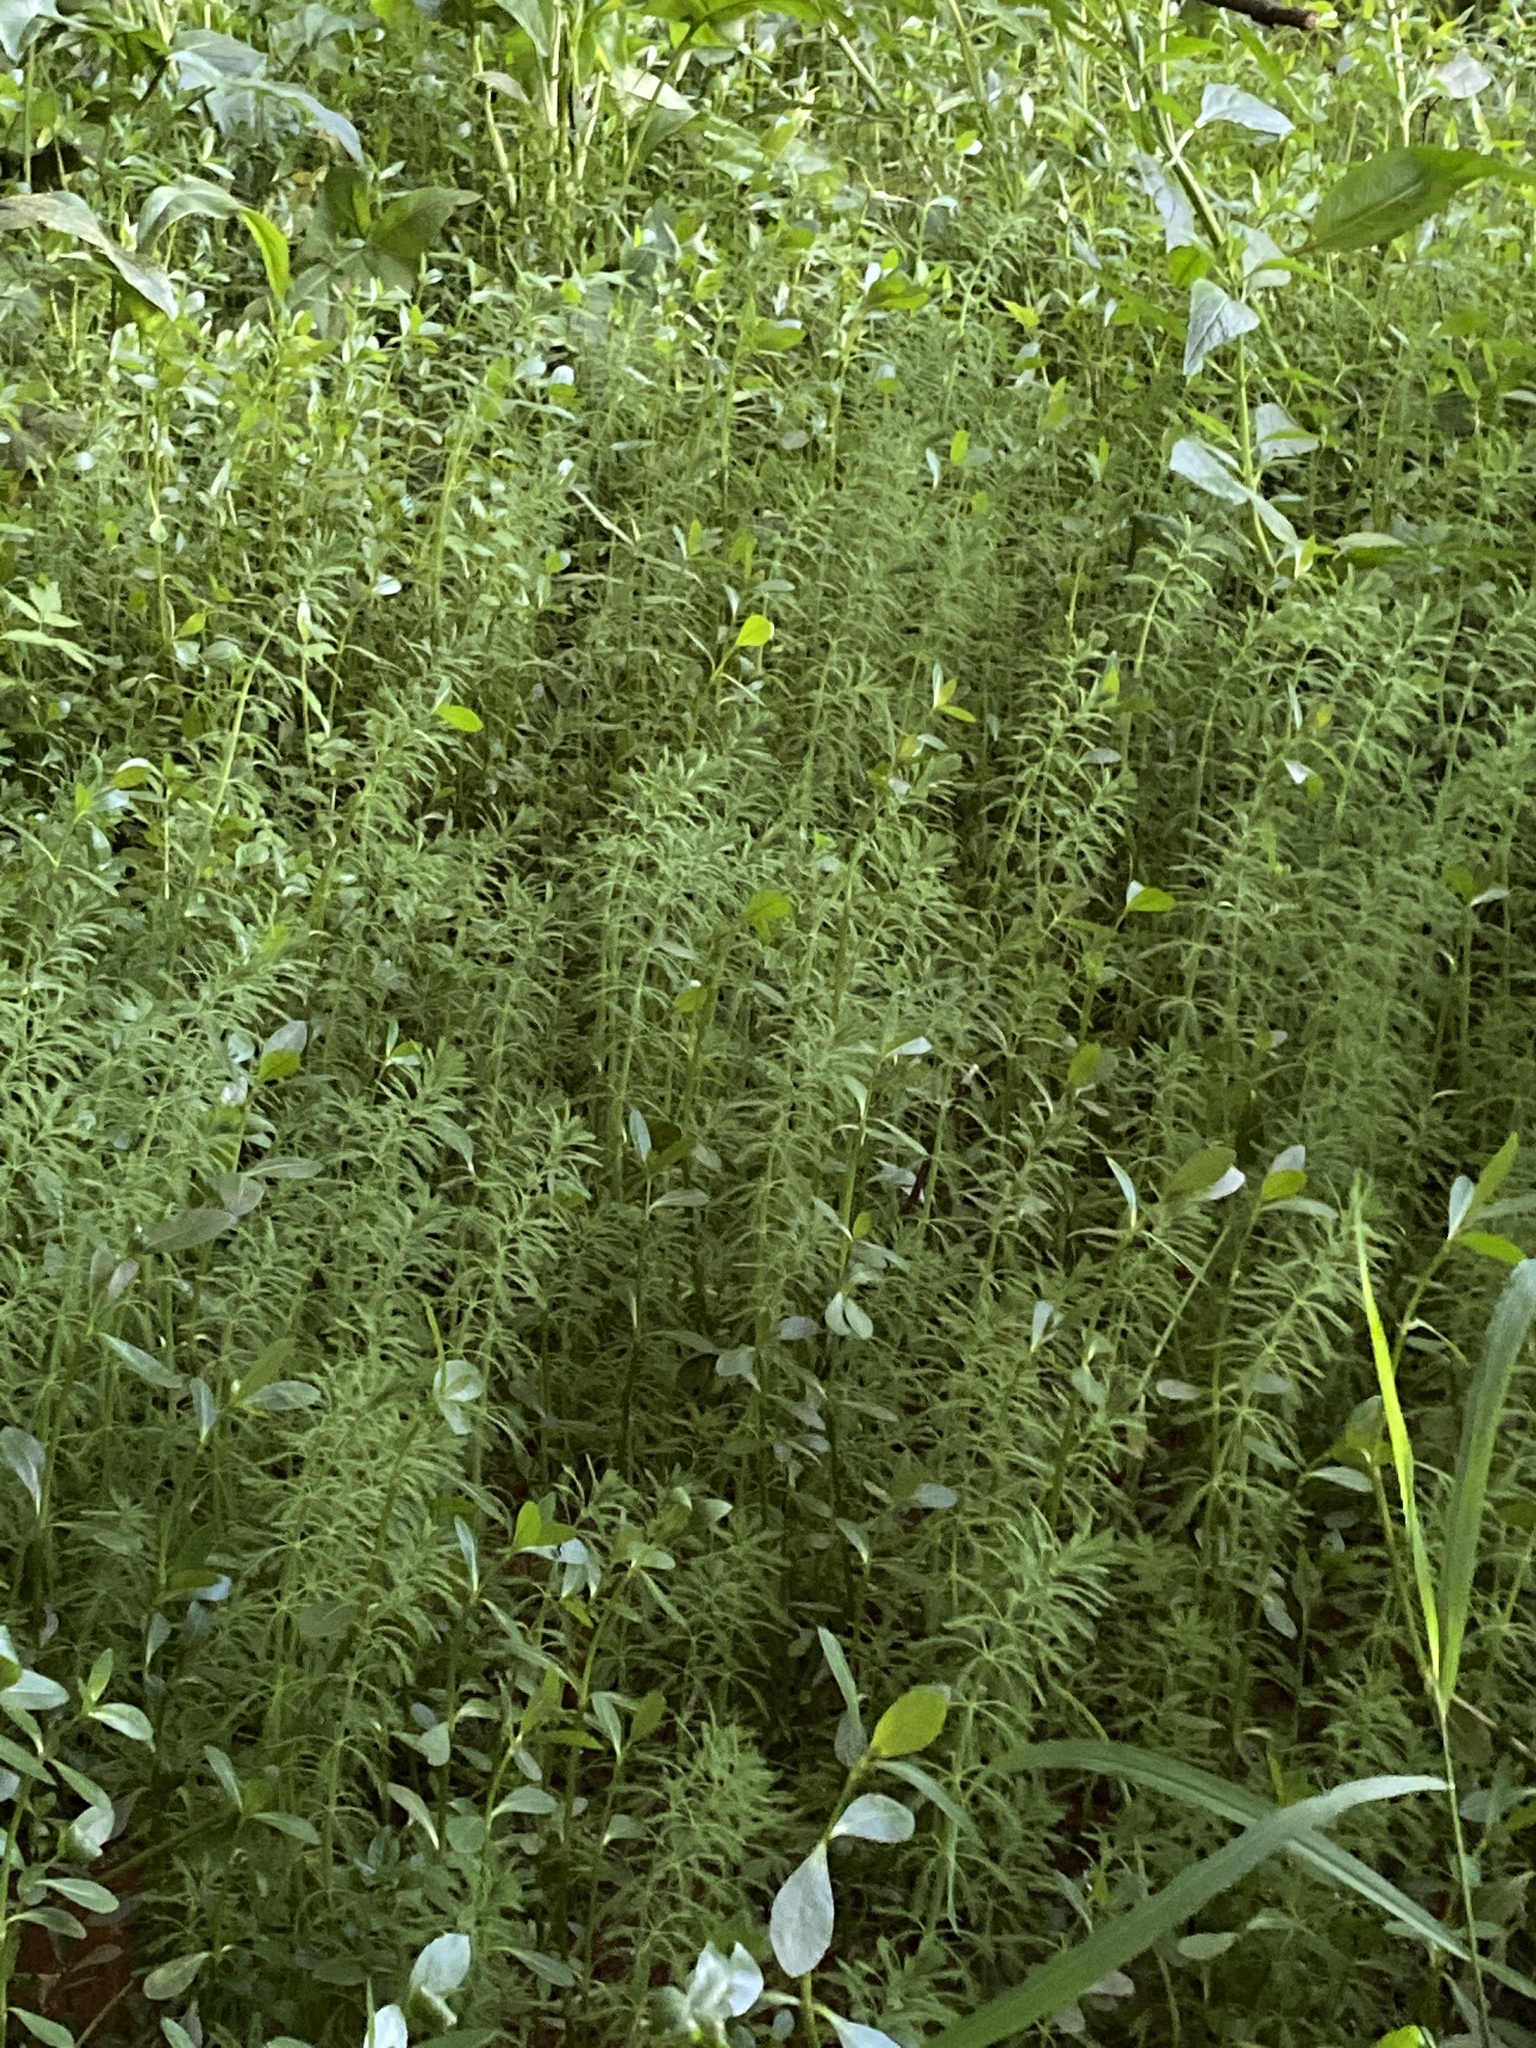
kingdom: Plantae
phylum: Tracheophyta
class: Magnoliopsida
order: Saxifragales
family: Haloragaceae
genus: Myriophyllum
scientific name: Myriophyllum aquaticum
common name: Parrot's feather
